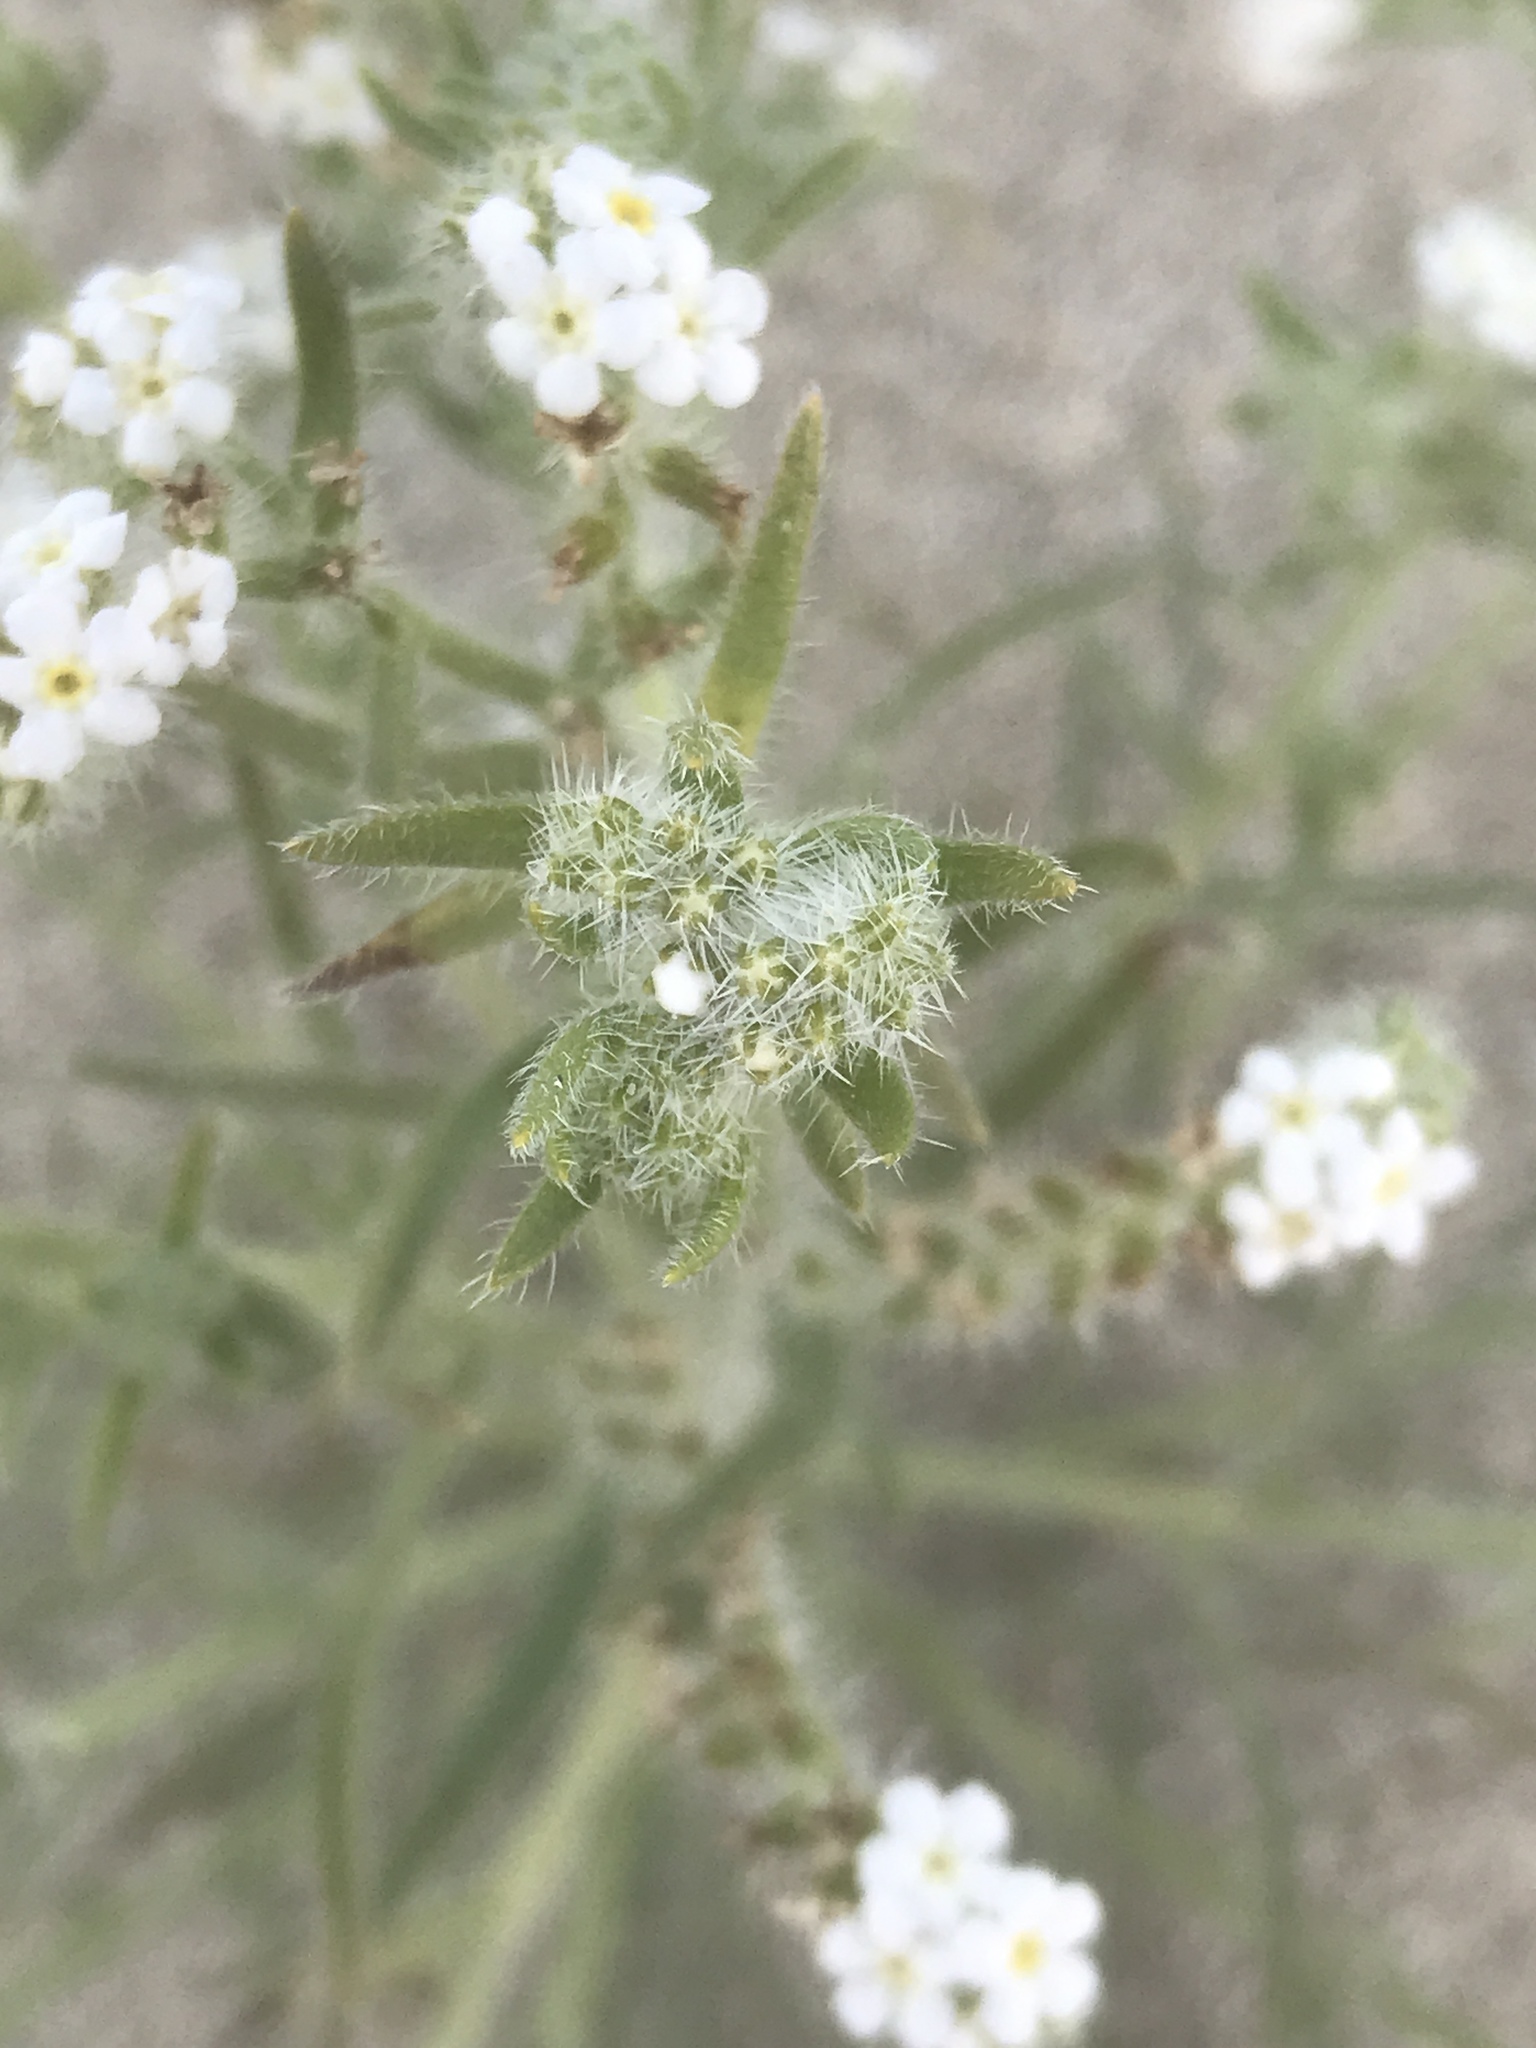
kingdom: Plantae
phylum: Tracheophyta
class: Magnoliopsida
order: Boraginales
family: Boraginaceae
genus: Johnstonella
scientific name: Johnstonella angustifolia
